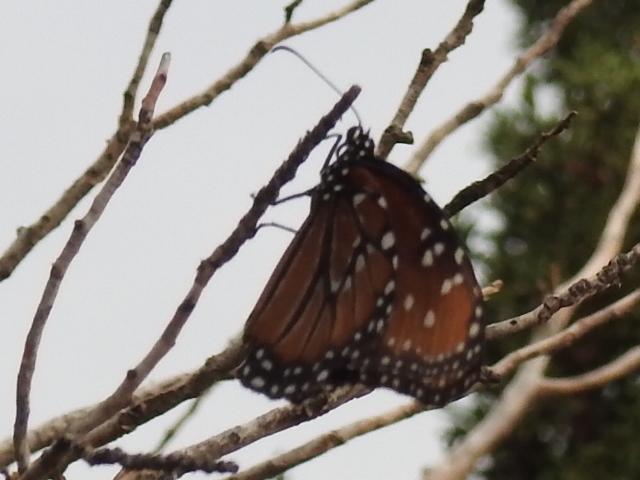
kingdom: Animalia
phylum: Arthropoda
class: Insecta
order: Lepidoptera
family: Nymphalidae
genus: Danaus
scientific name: Danaus gilippus
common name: Queen
